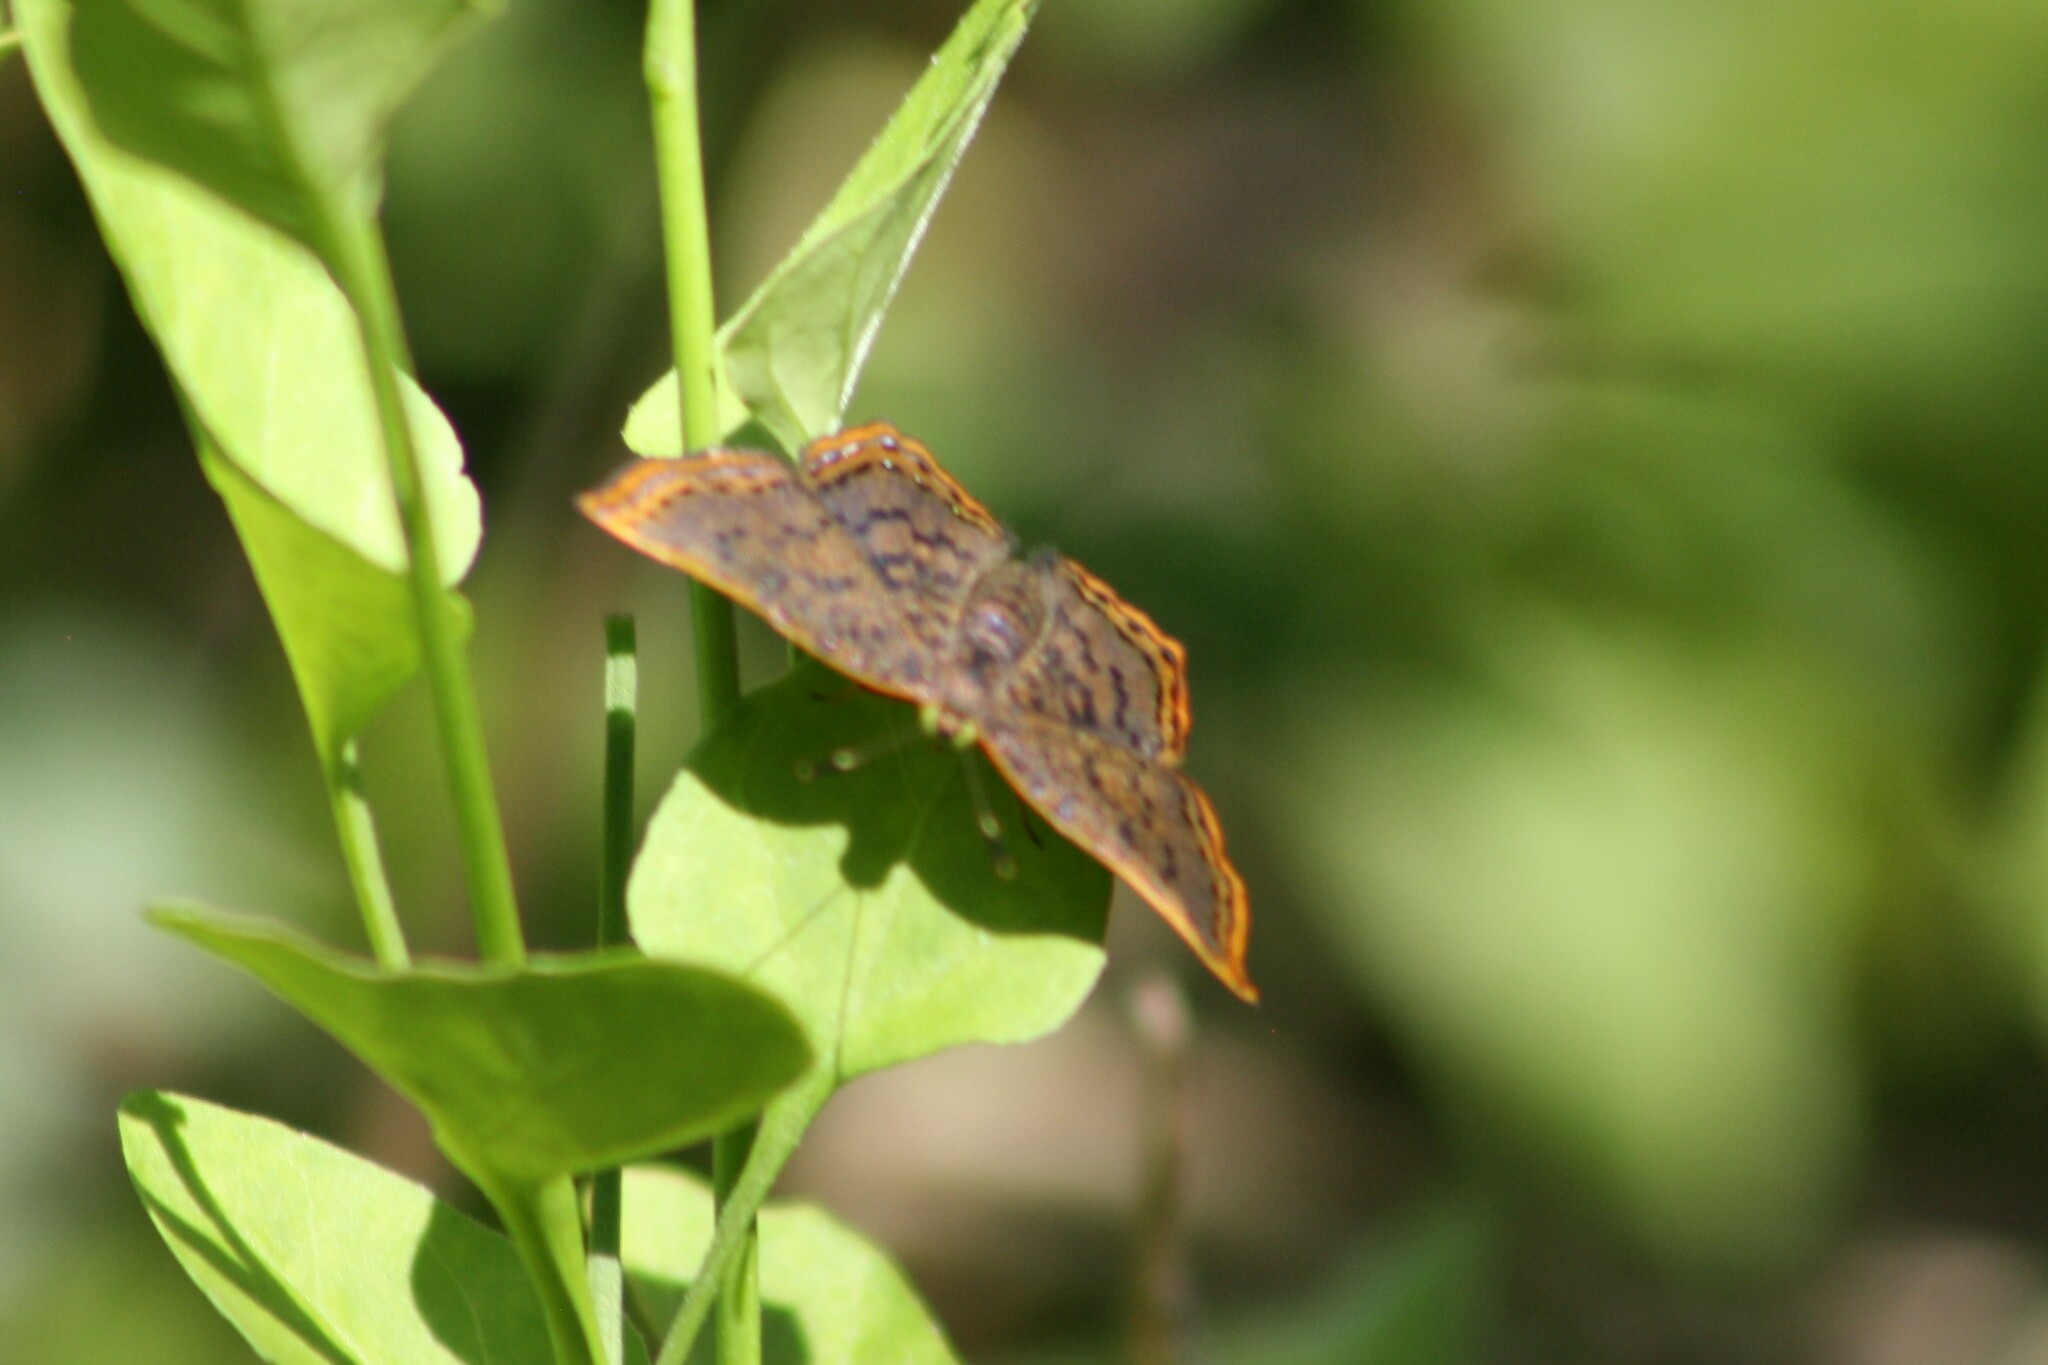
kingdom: Animalia
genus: Caria
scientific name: Caria ino
